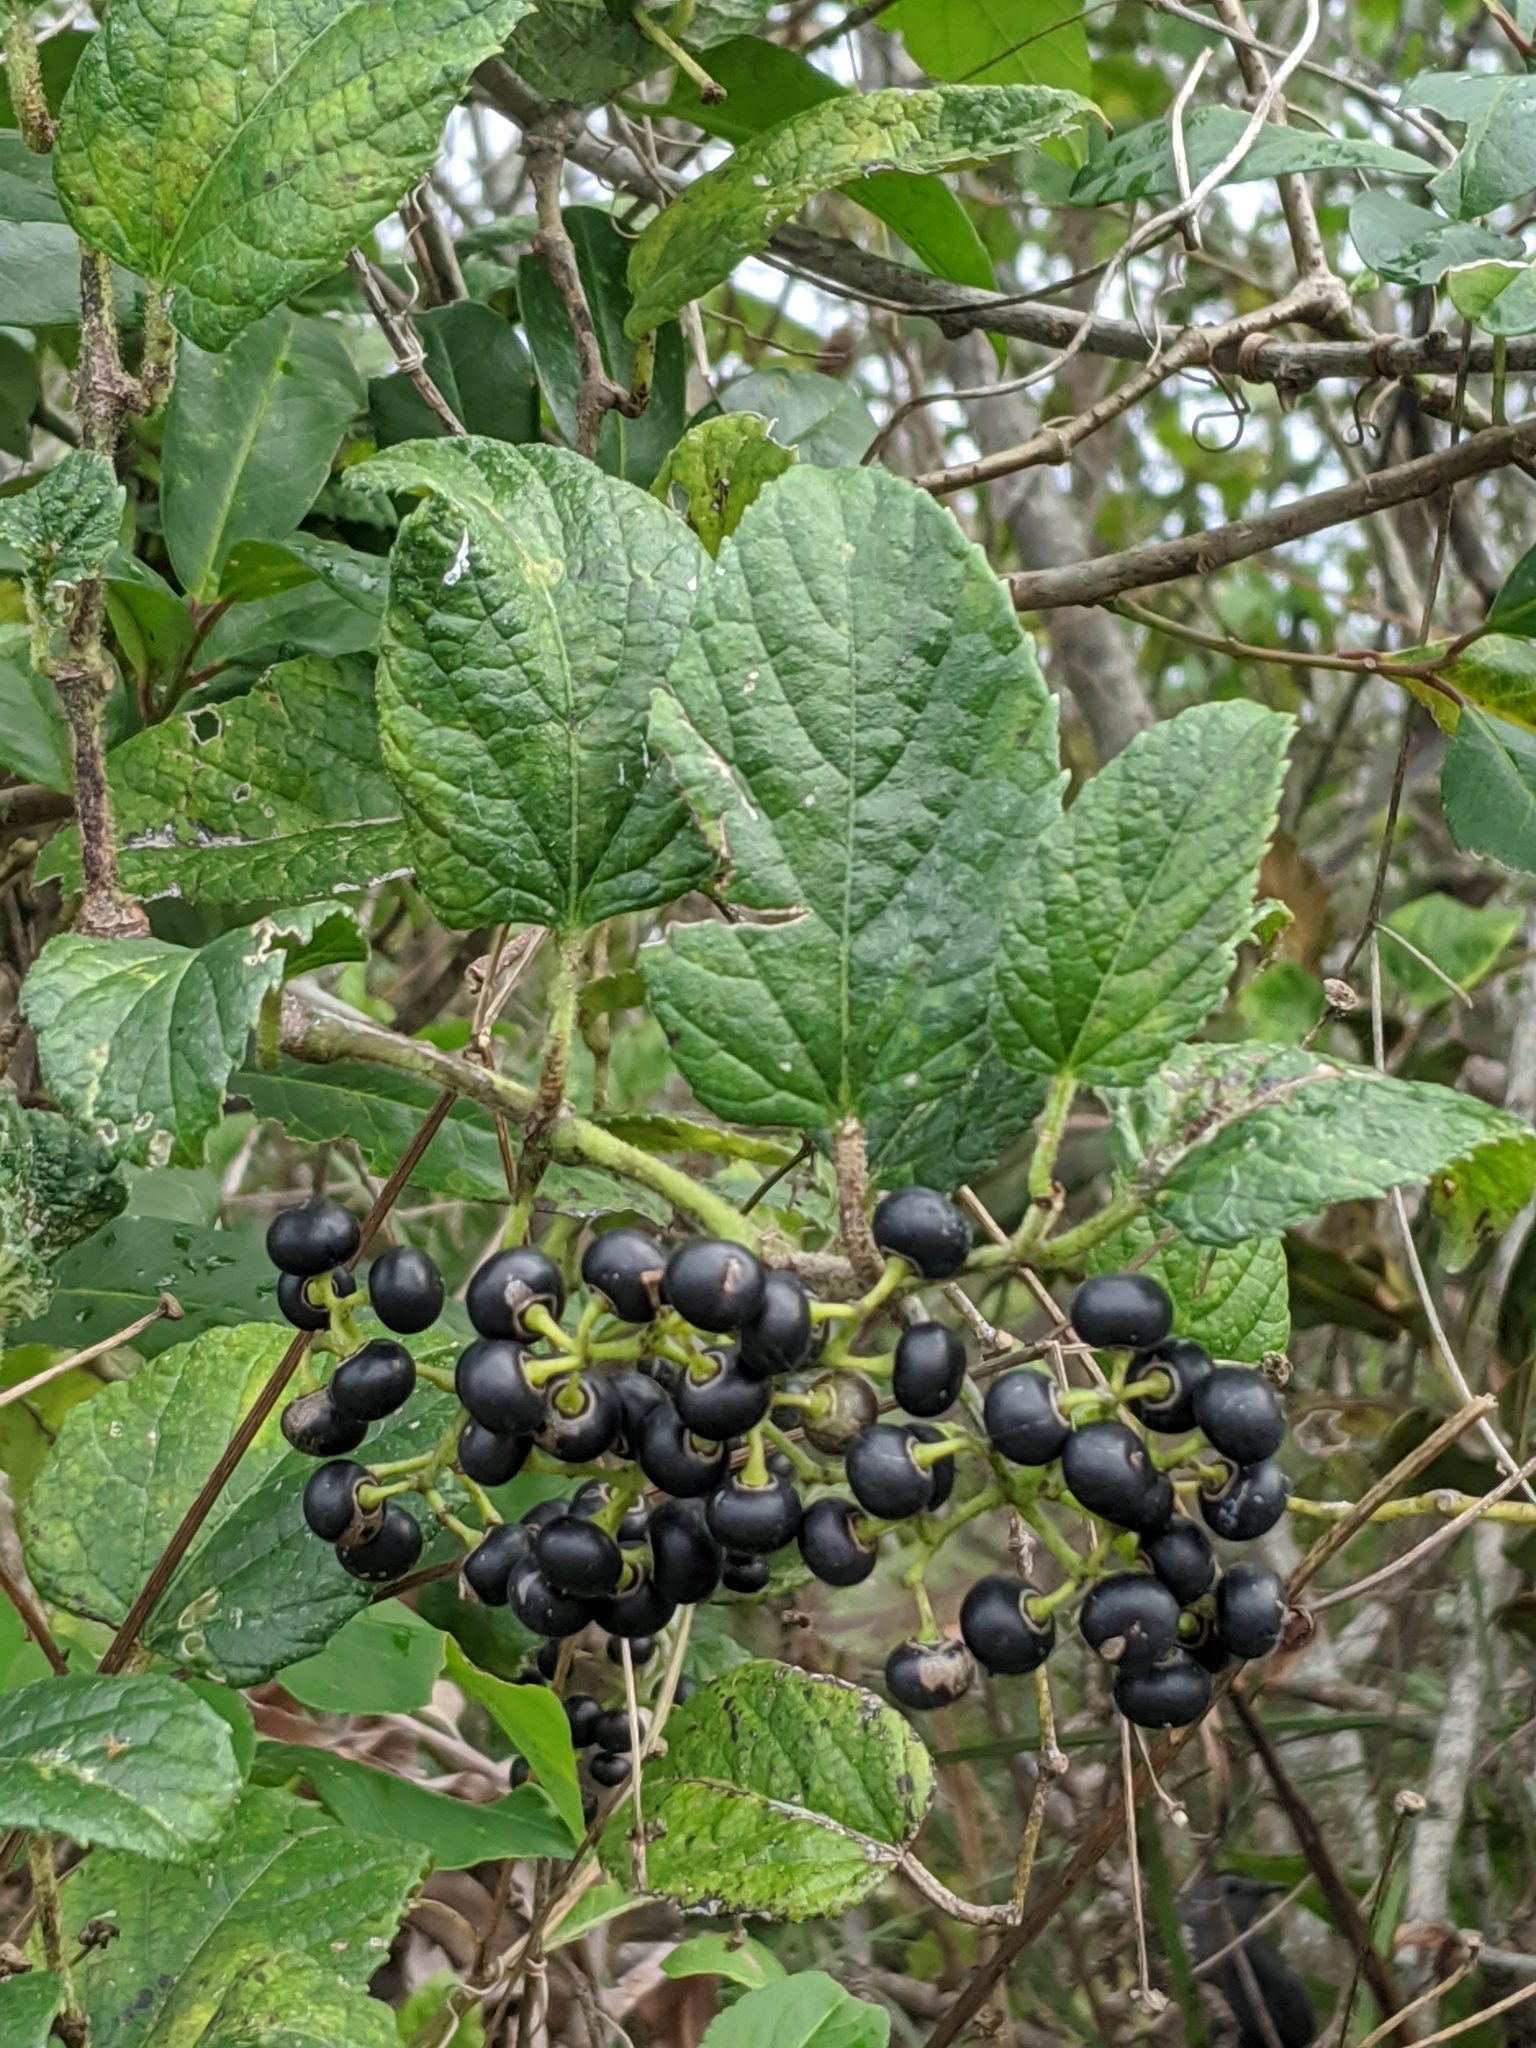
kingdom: Plantae
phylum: Tracheophyta
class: Magnoliopsida
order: Vitales
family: Vitaceae
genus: Cissus
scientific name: Cissus verticillata
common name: Princess vine
